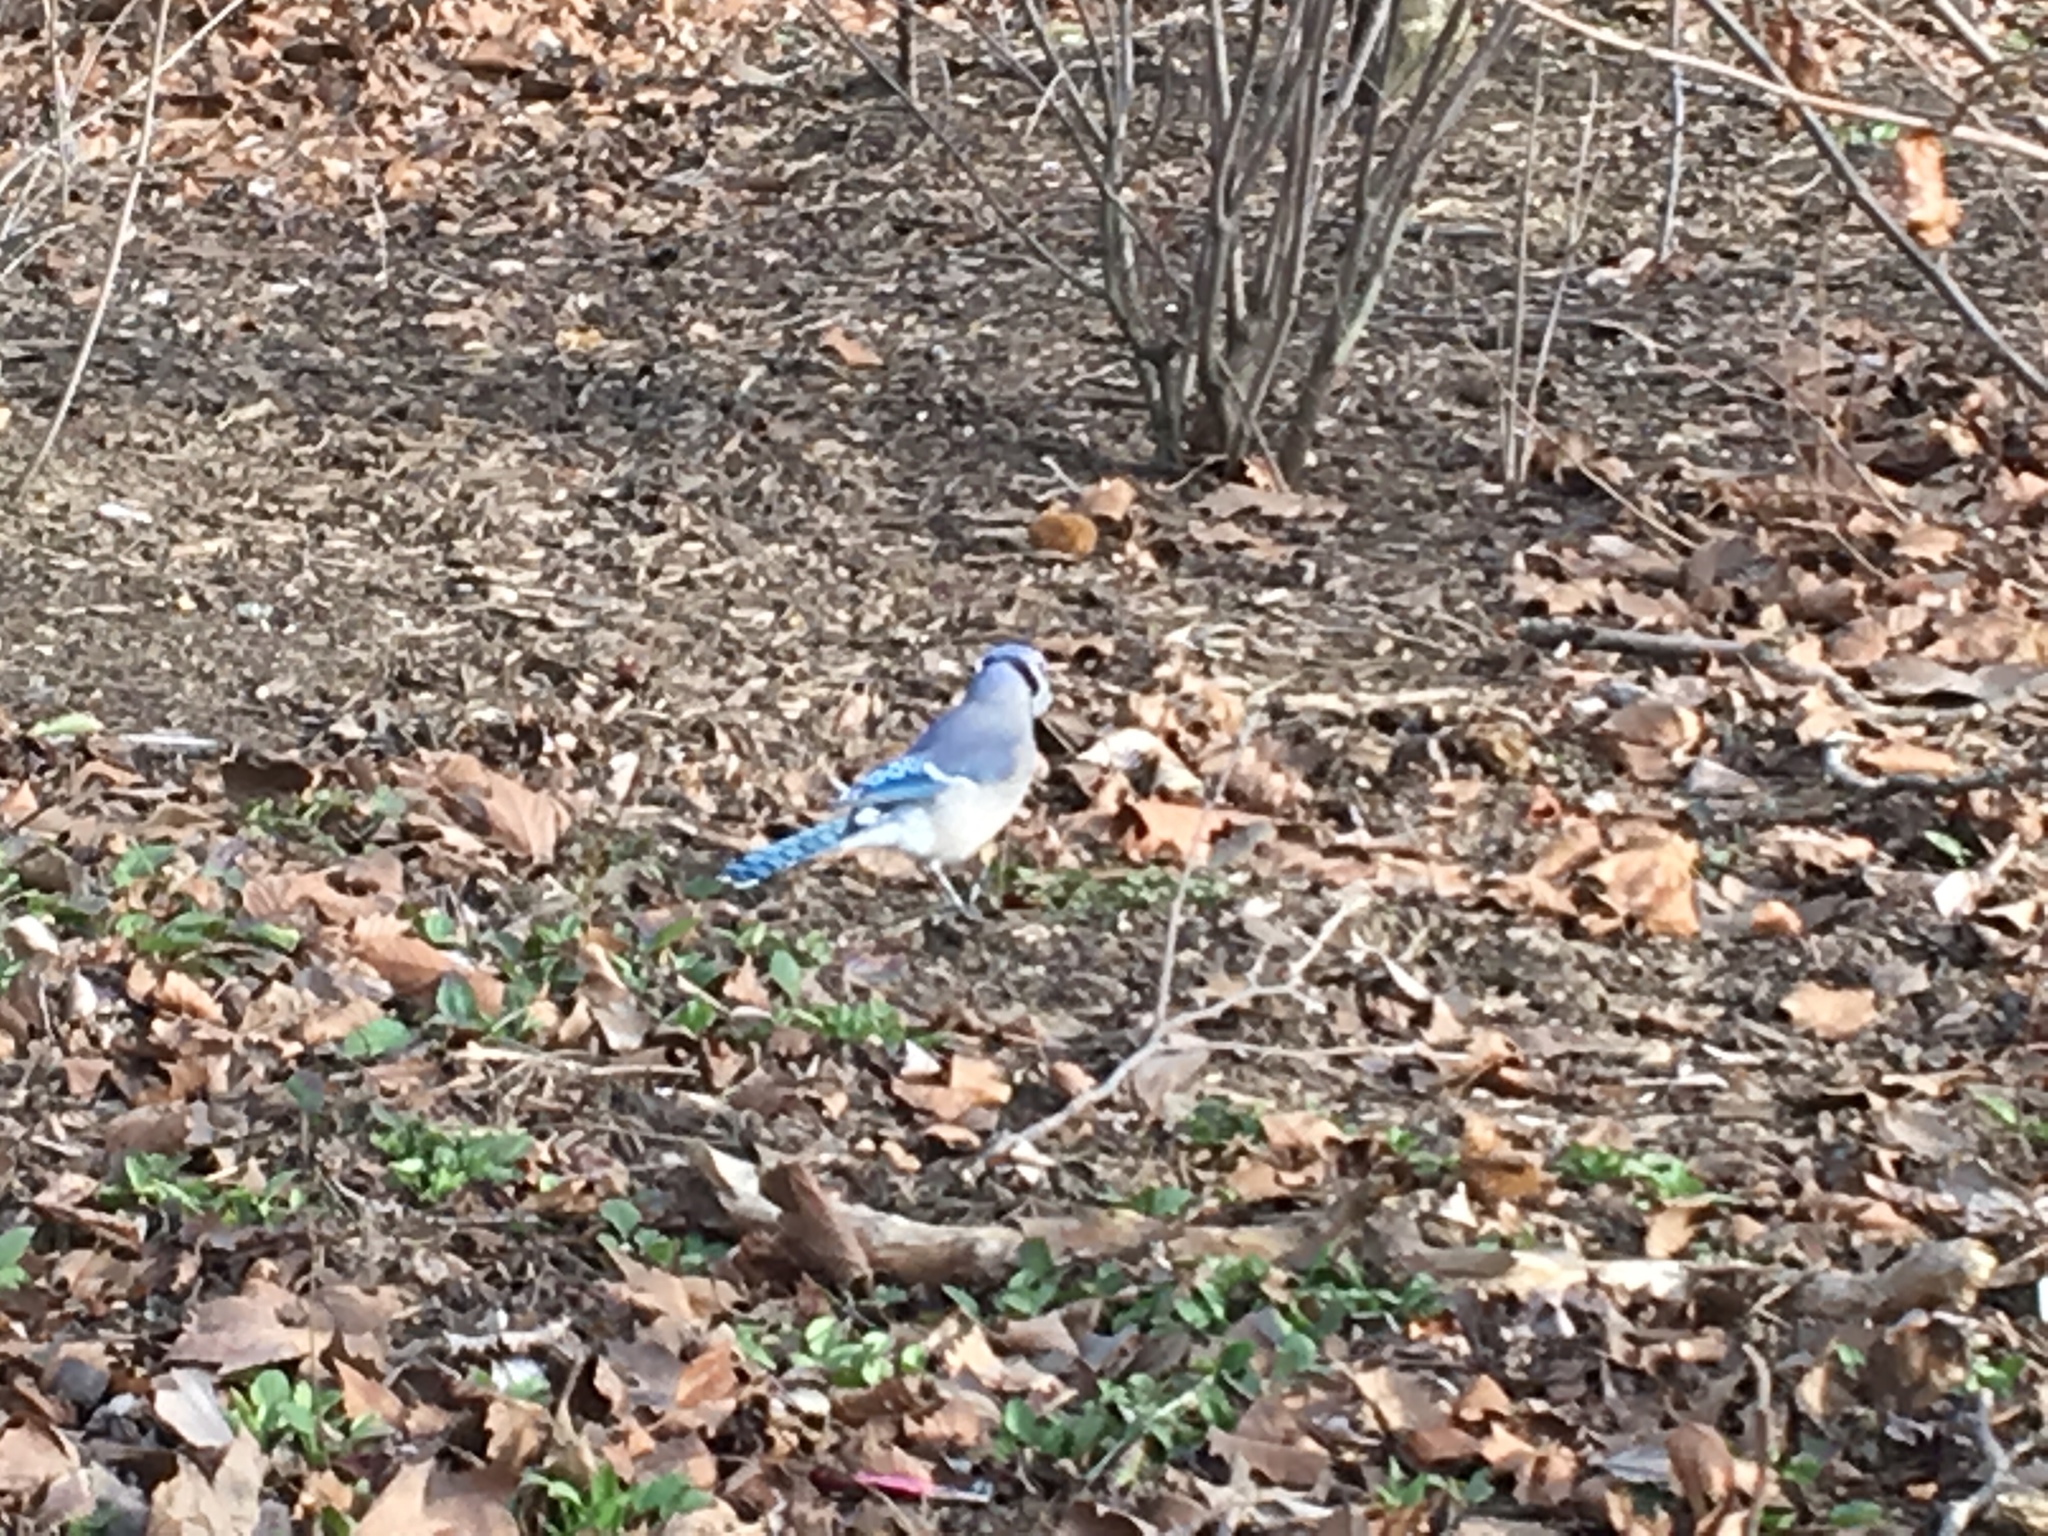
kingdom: Animalia
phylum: Chordata
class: Aves
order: Passeriformes
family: Corvidae
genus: Cyanocitta
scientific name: Cyanocitta cristata
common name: Blue jay
